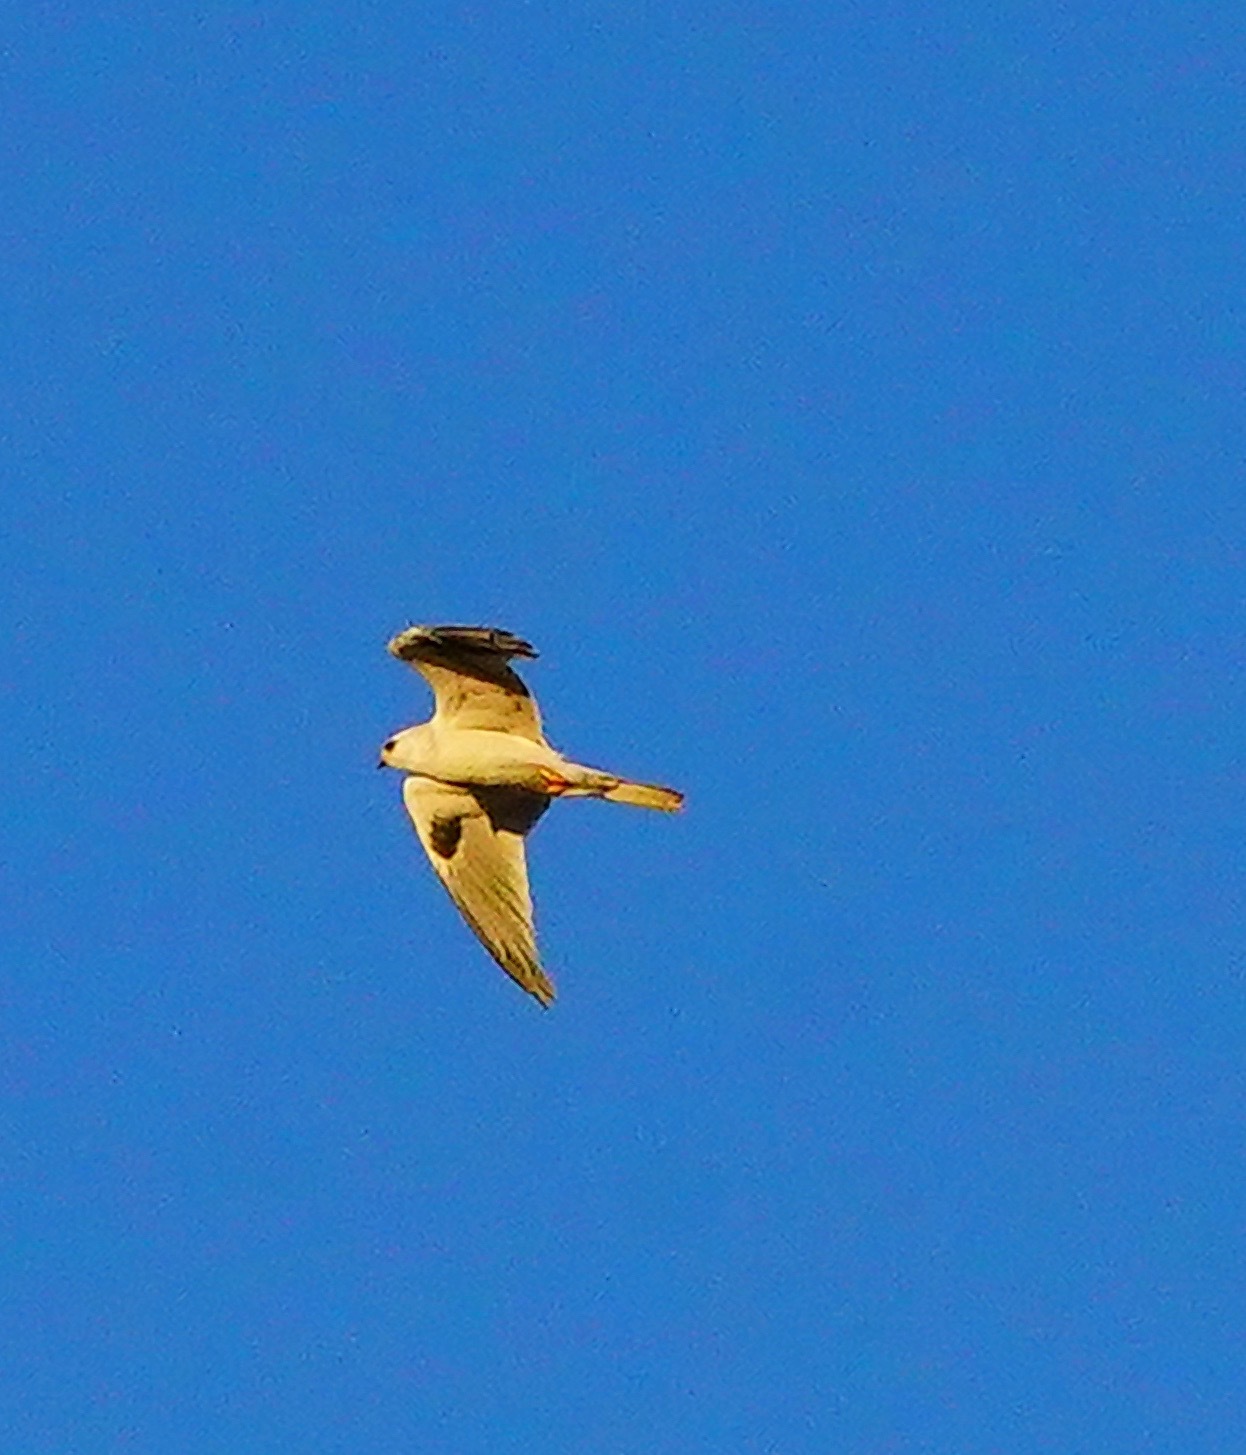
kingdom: Animalia
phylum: Chordata
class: Aves
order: Accipitriformes
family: Accipitridae
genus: Elanus
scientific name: Elanus leucurus
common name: White-tailed kite
